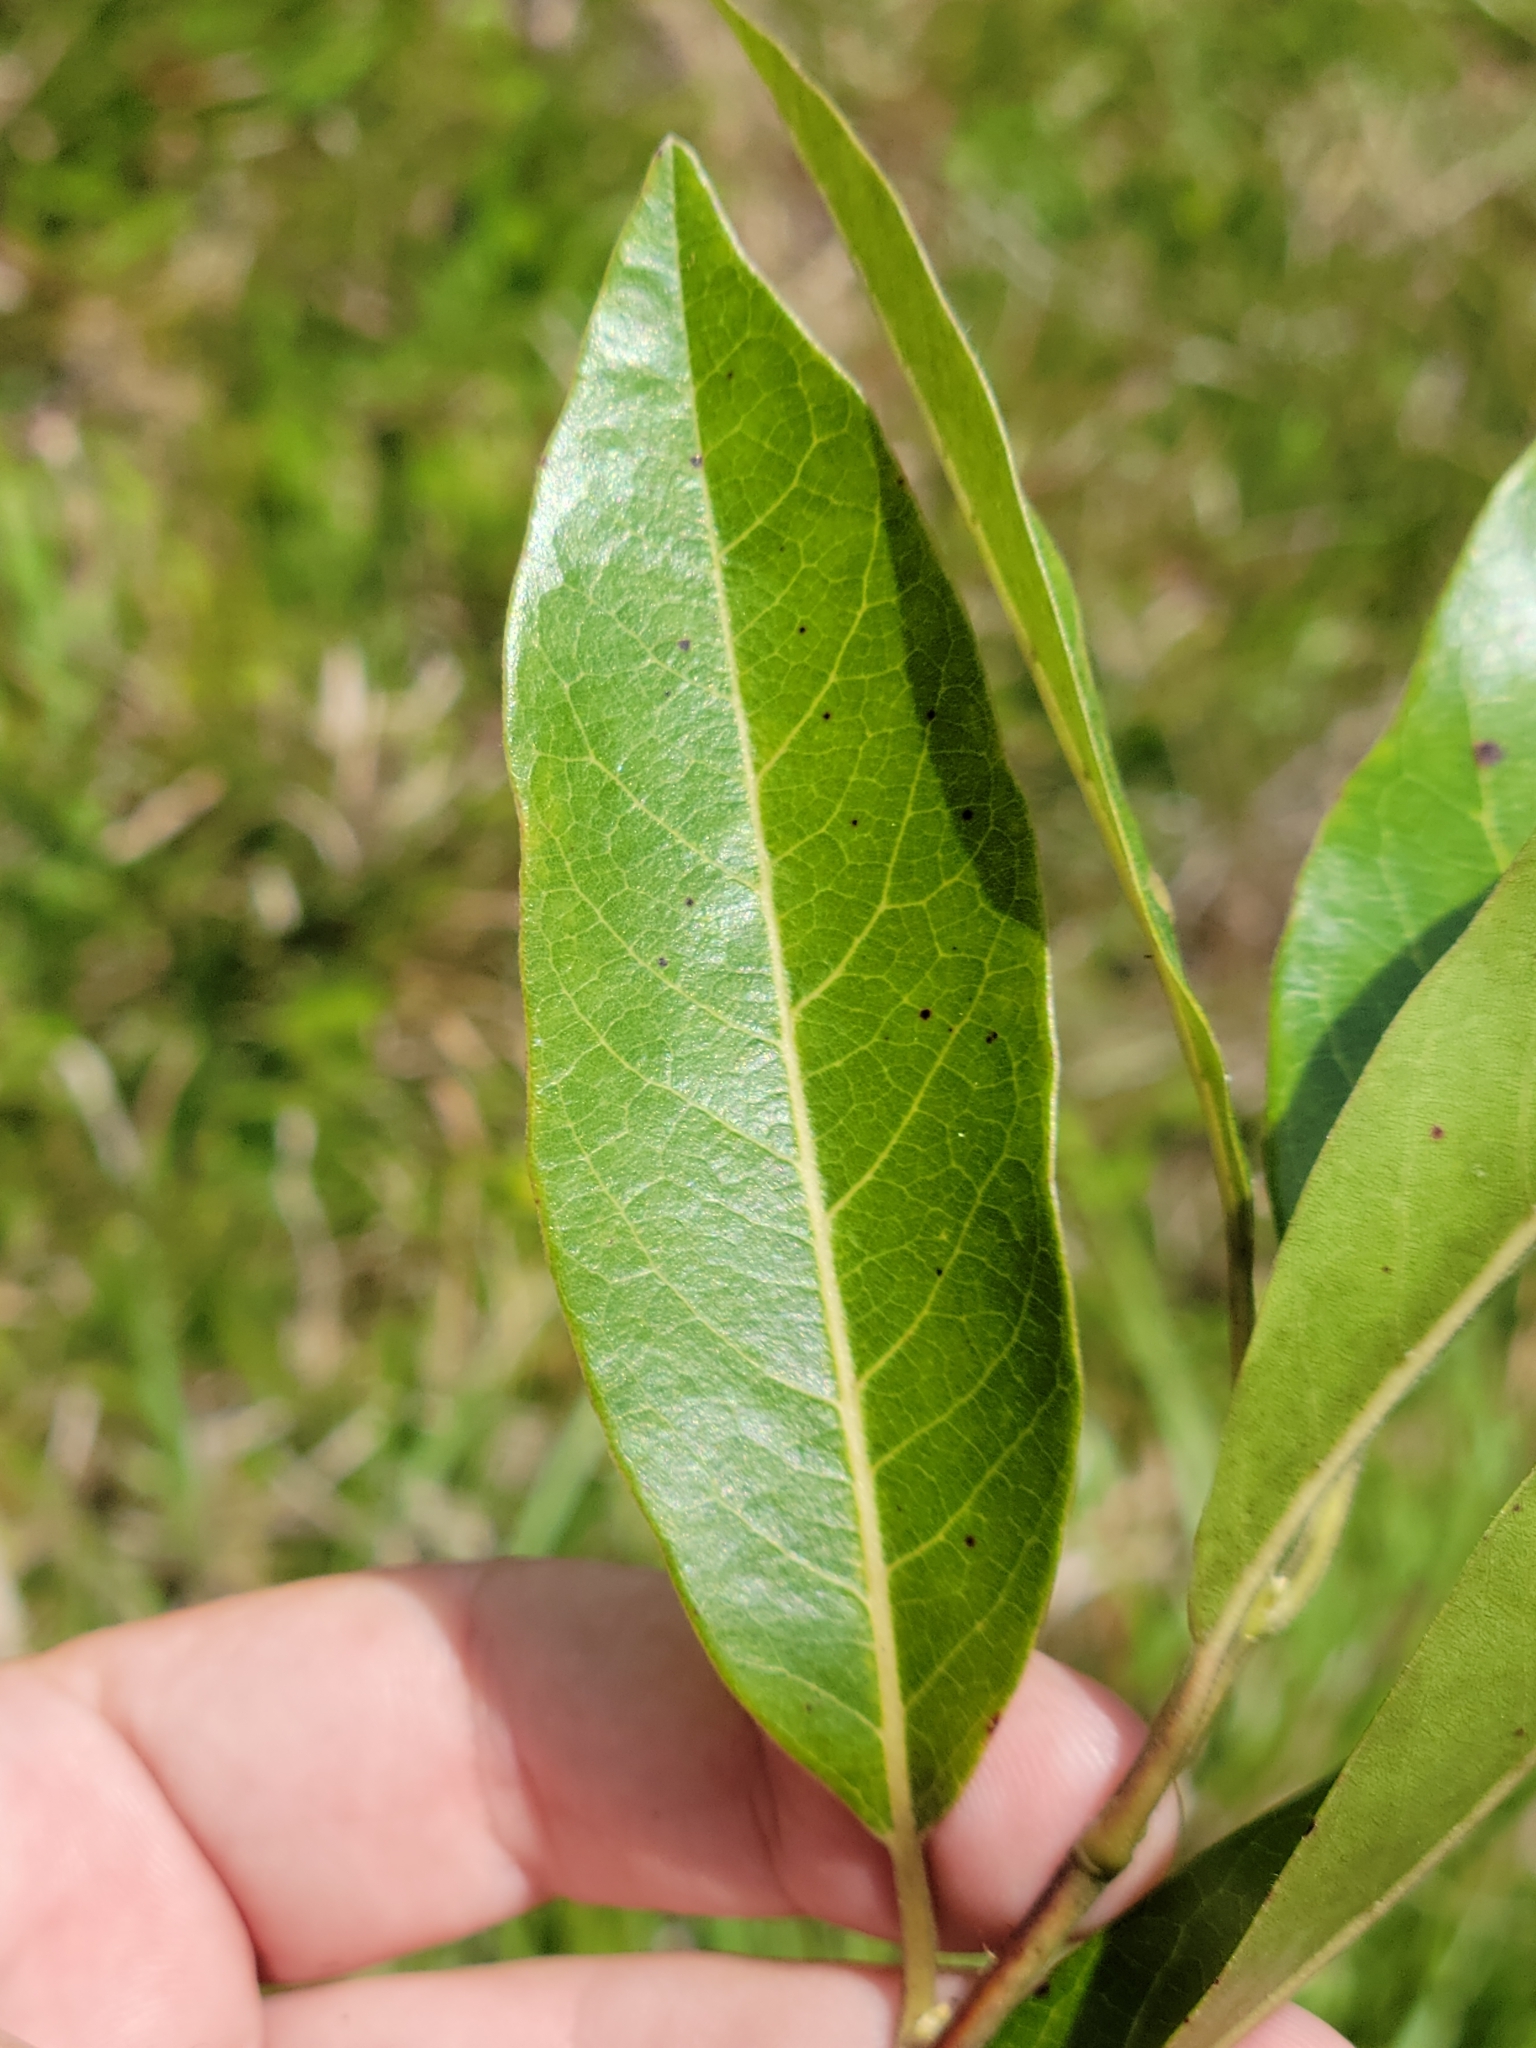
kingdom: Plantae
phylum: Tracheophyta
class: Magnoliopsida
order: Cornales
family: Nyssaceae
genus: Nyssa
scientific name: Nyssa biflora
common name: Swamp blackgum
